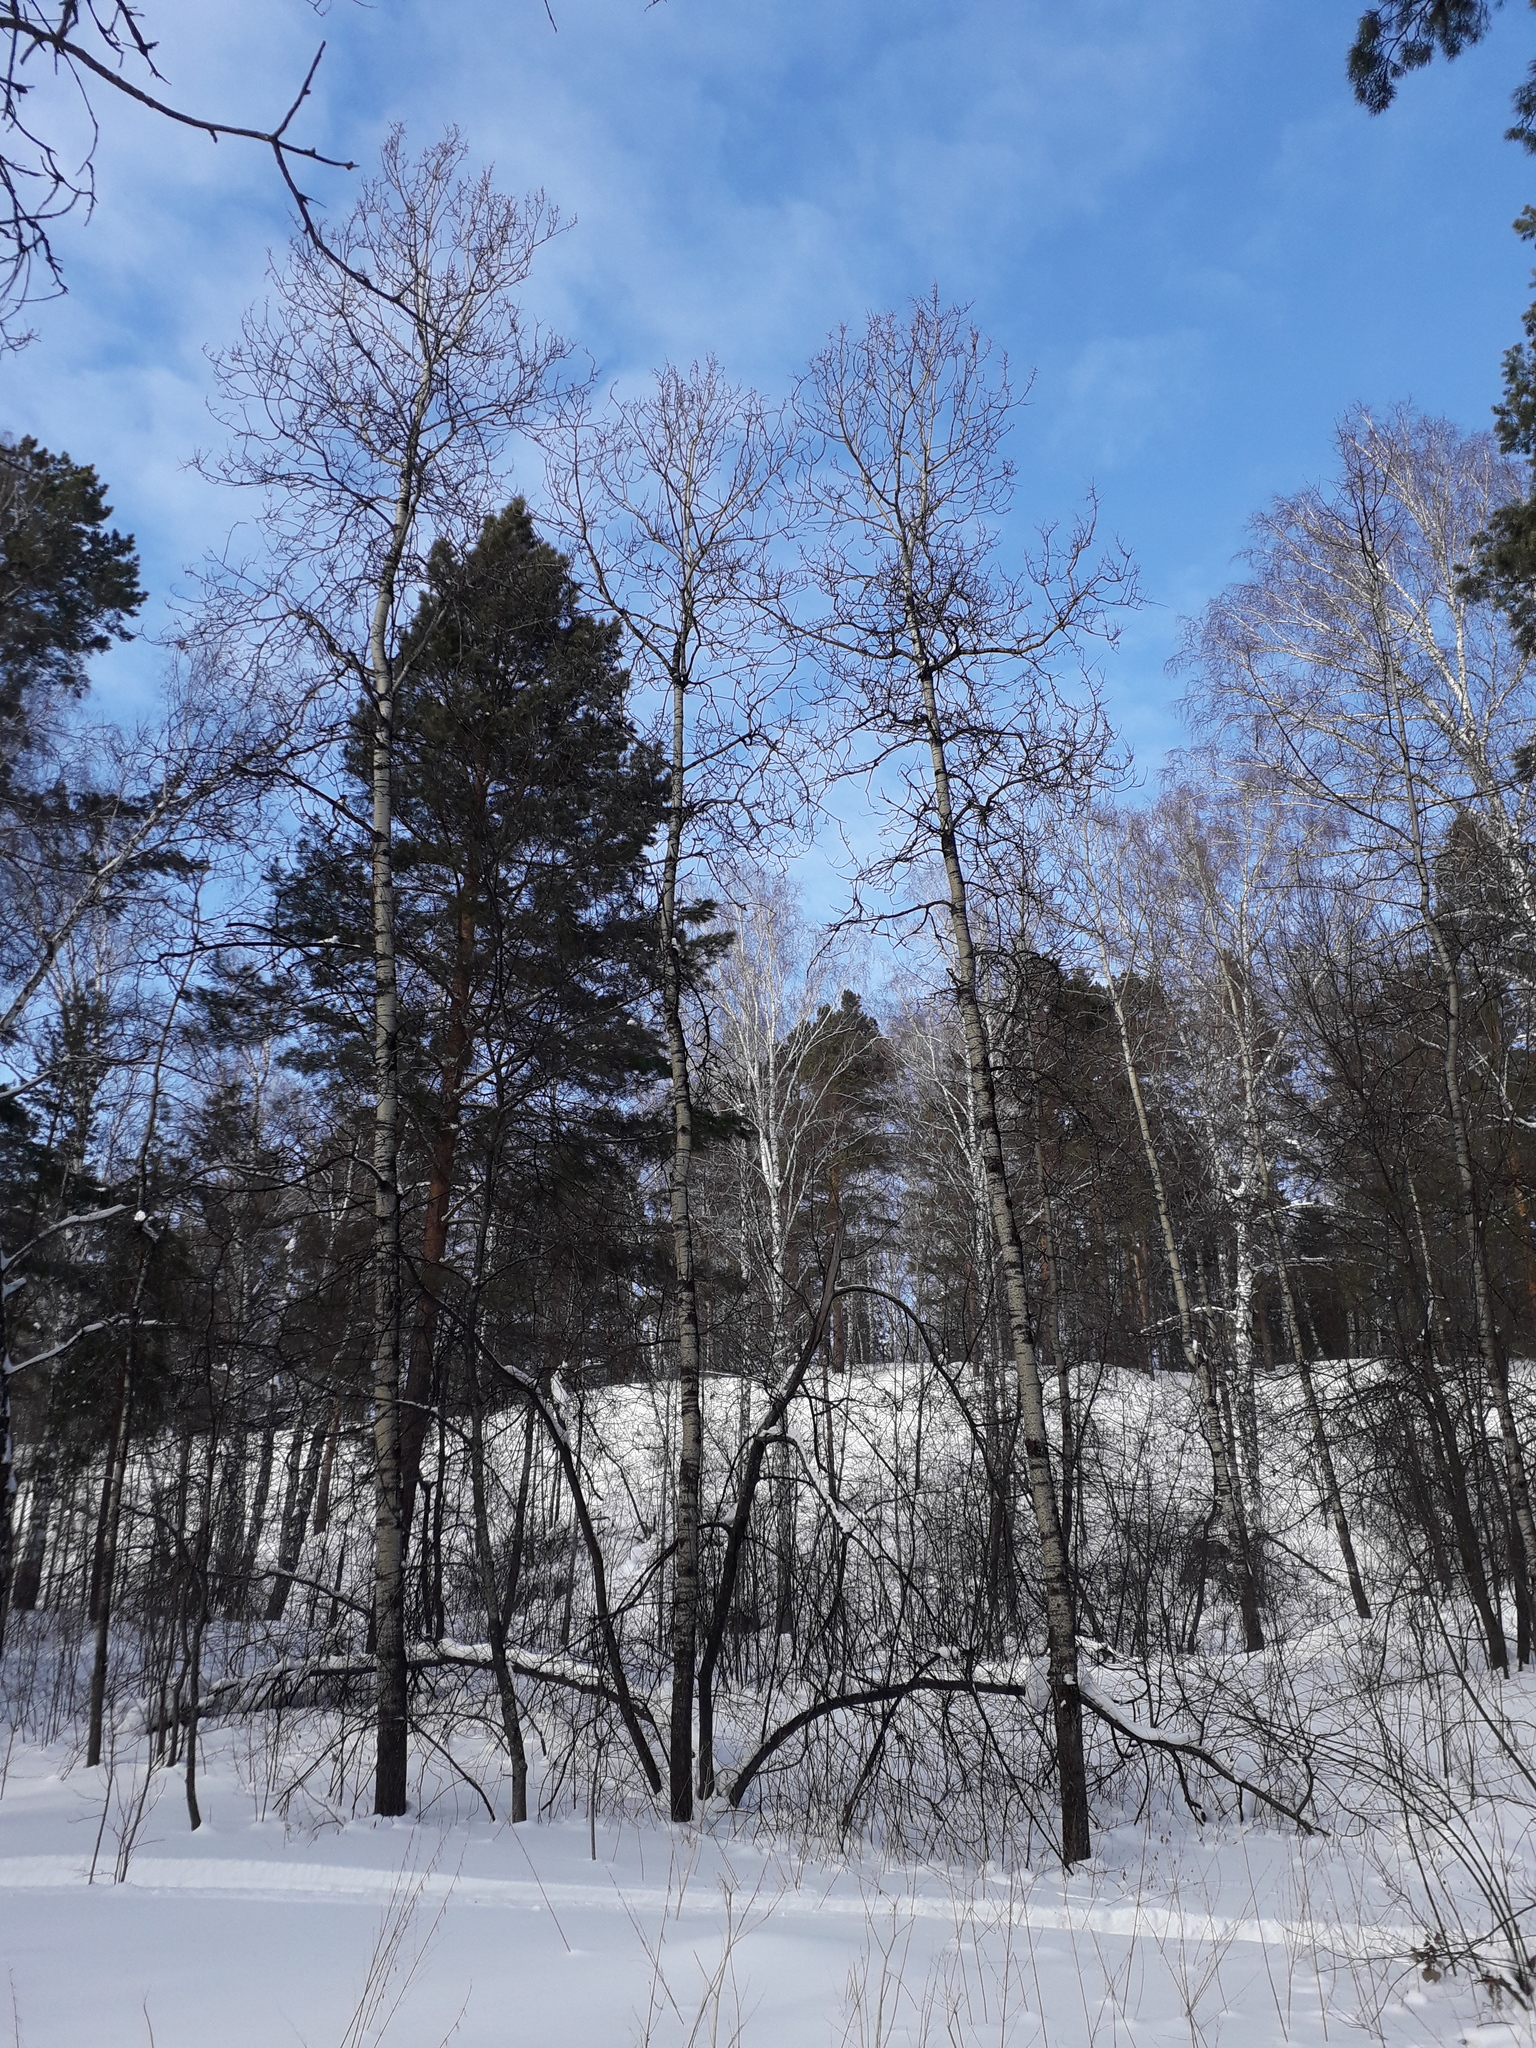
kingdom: Plantae
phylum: Tracheophyta
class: Magnoliopsida
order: Malpighiales
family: Salicaceae
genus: Populus
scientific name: Populus tremula
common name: European aspen
